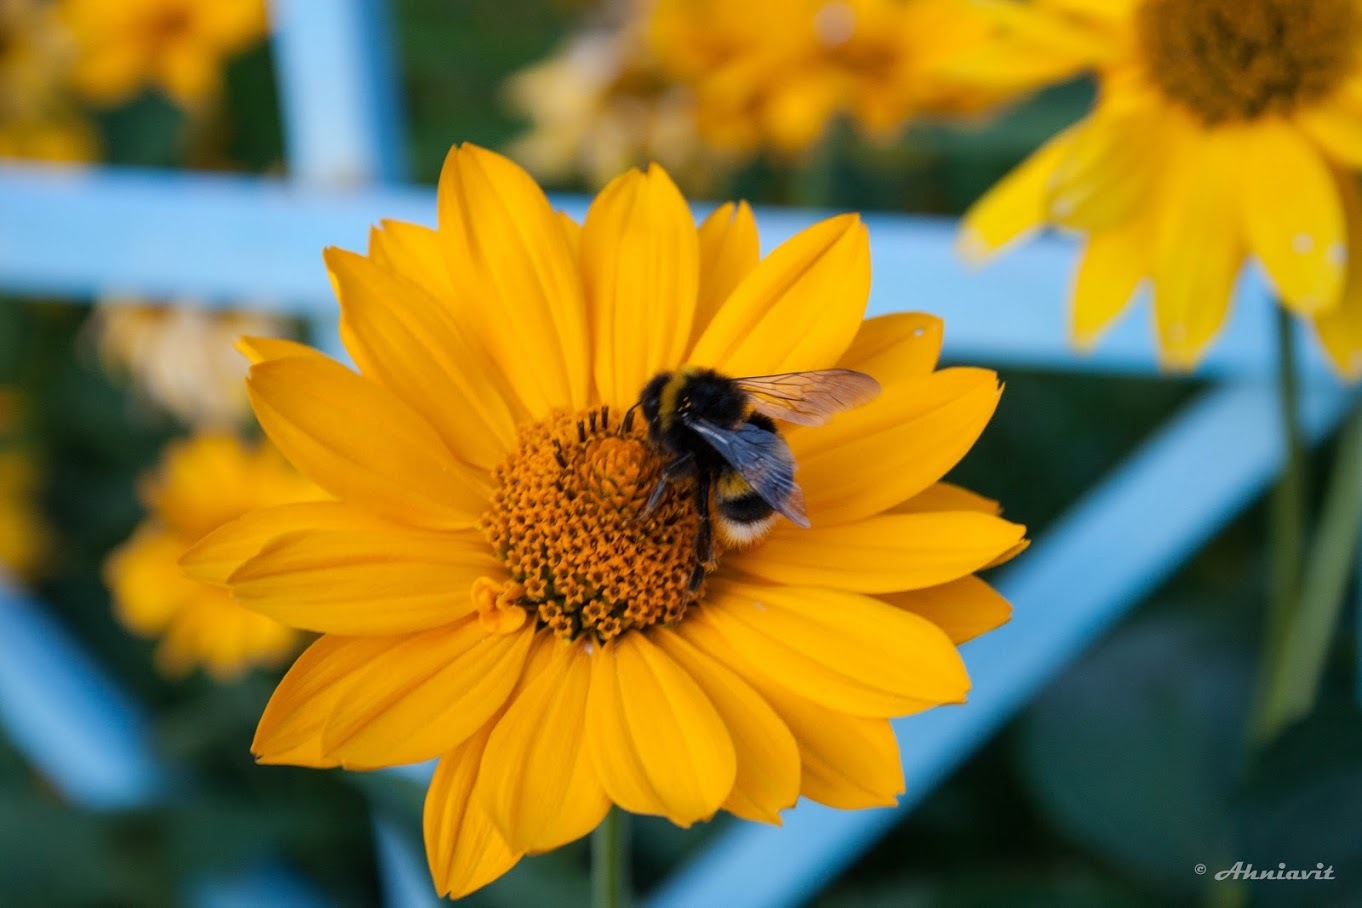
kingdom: Animalia
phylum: Arthropoda
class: Insecta
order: Hymenoptera
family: Apidae
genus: Bombus
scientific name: Bombus
